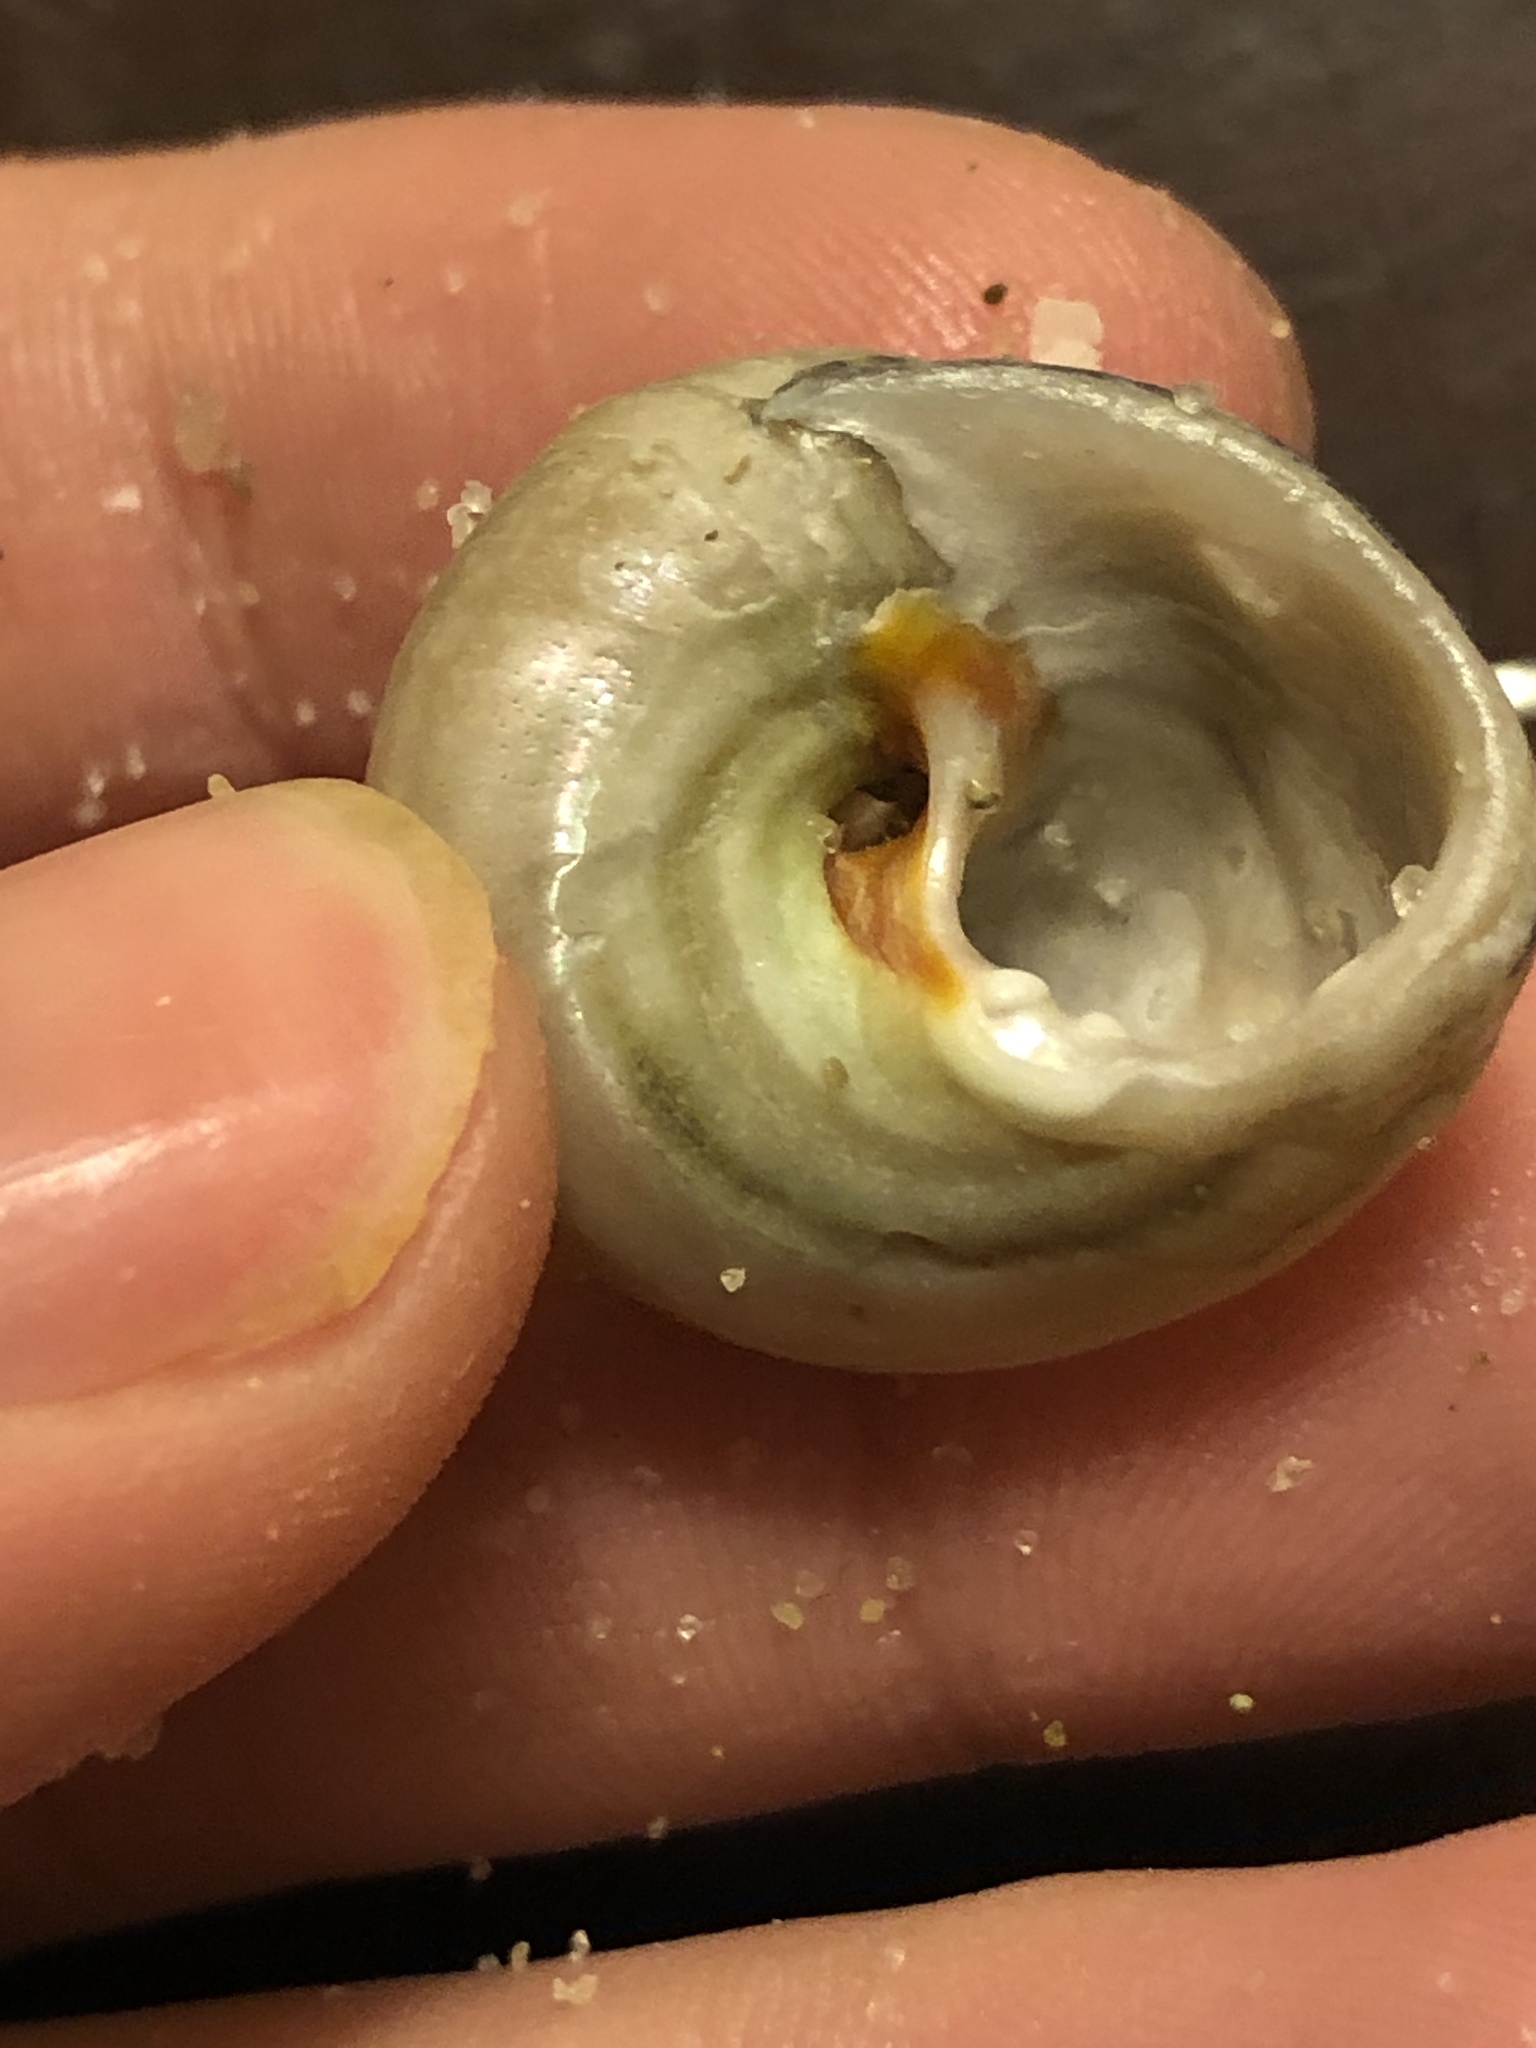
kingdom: Animalia
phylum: Mollusca
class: Gastropoda
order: Trochida
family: Tegulidae
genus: Tegula
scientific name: Tegula aureotincta
